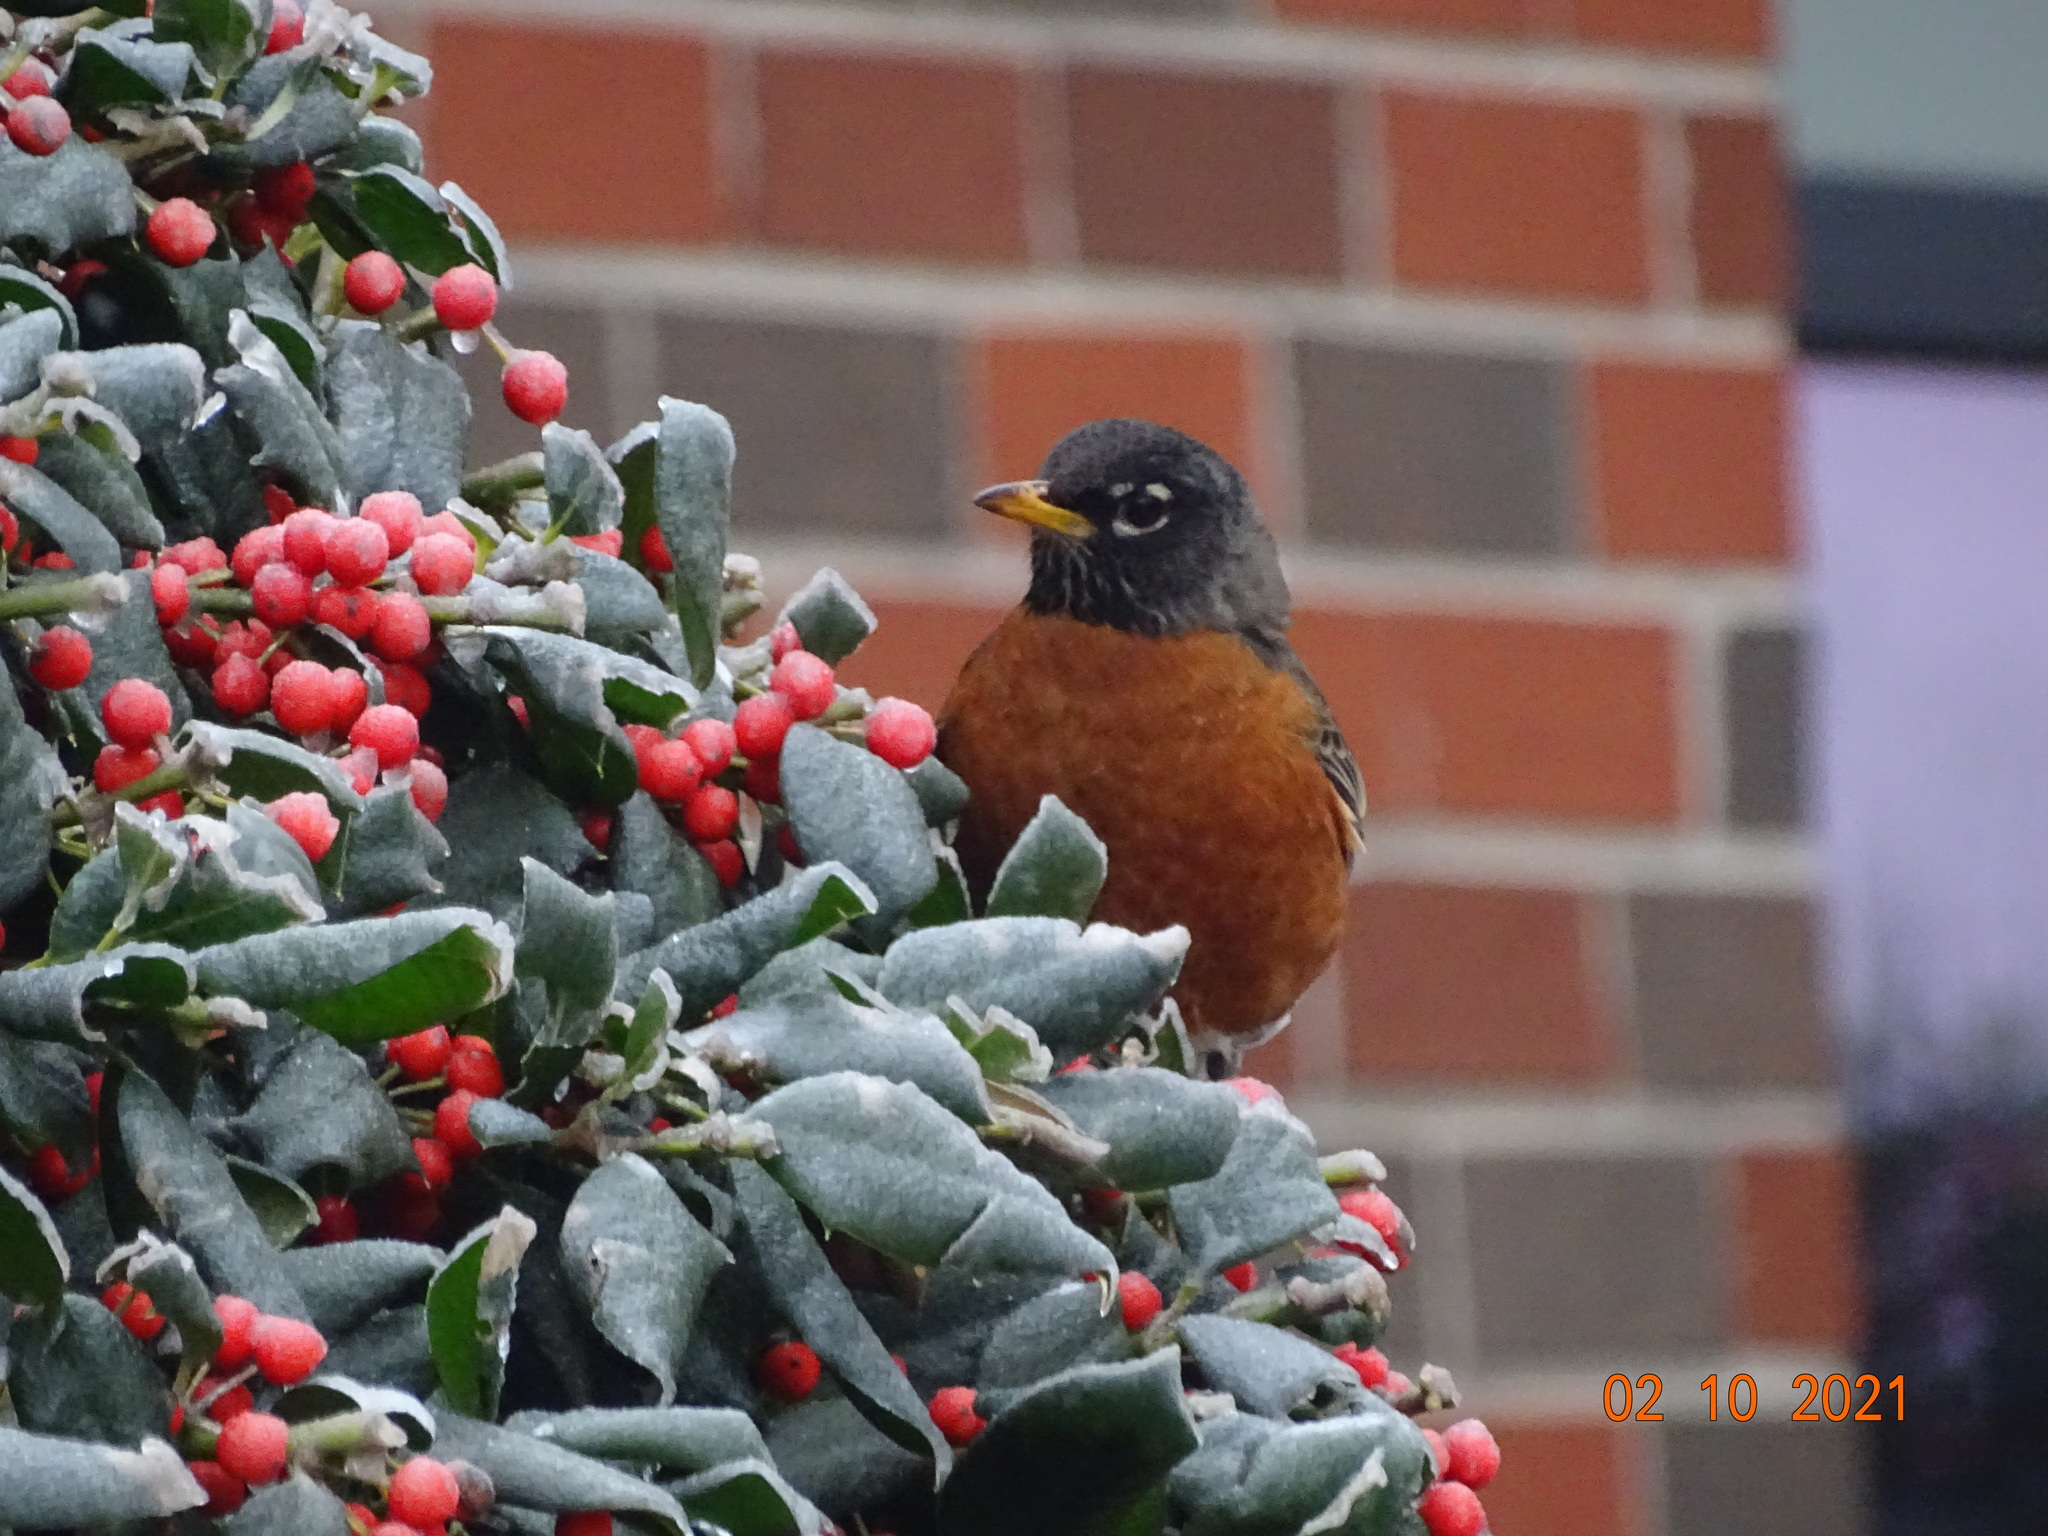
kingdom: Animalia
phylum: Chordata
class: Aves
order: Passeriformes
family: Turdidae
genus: Turdus
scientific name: Turdus migratorius
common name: American robin
